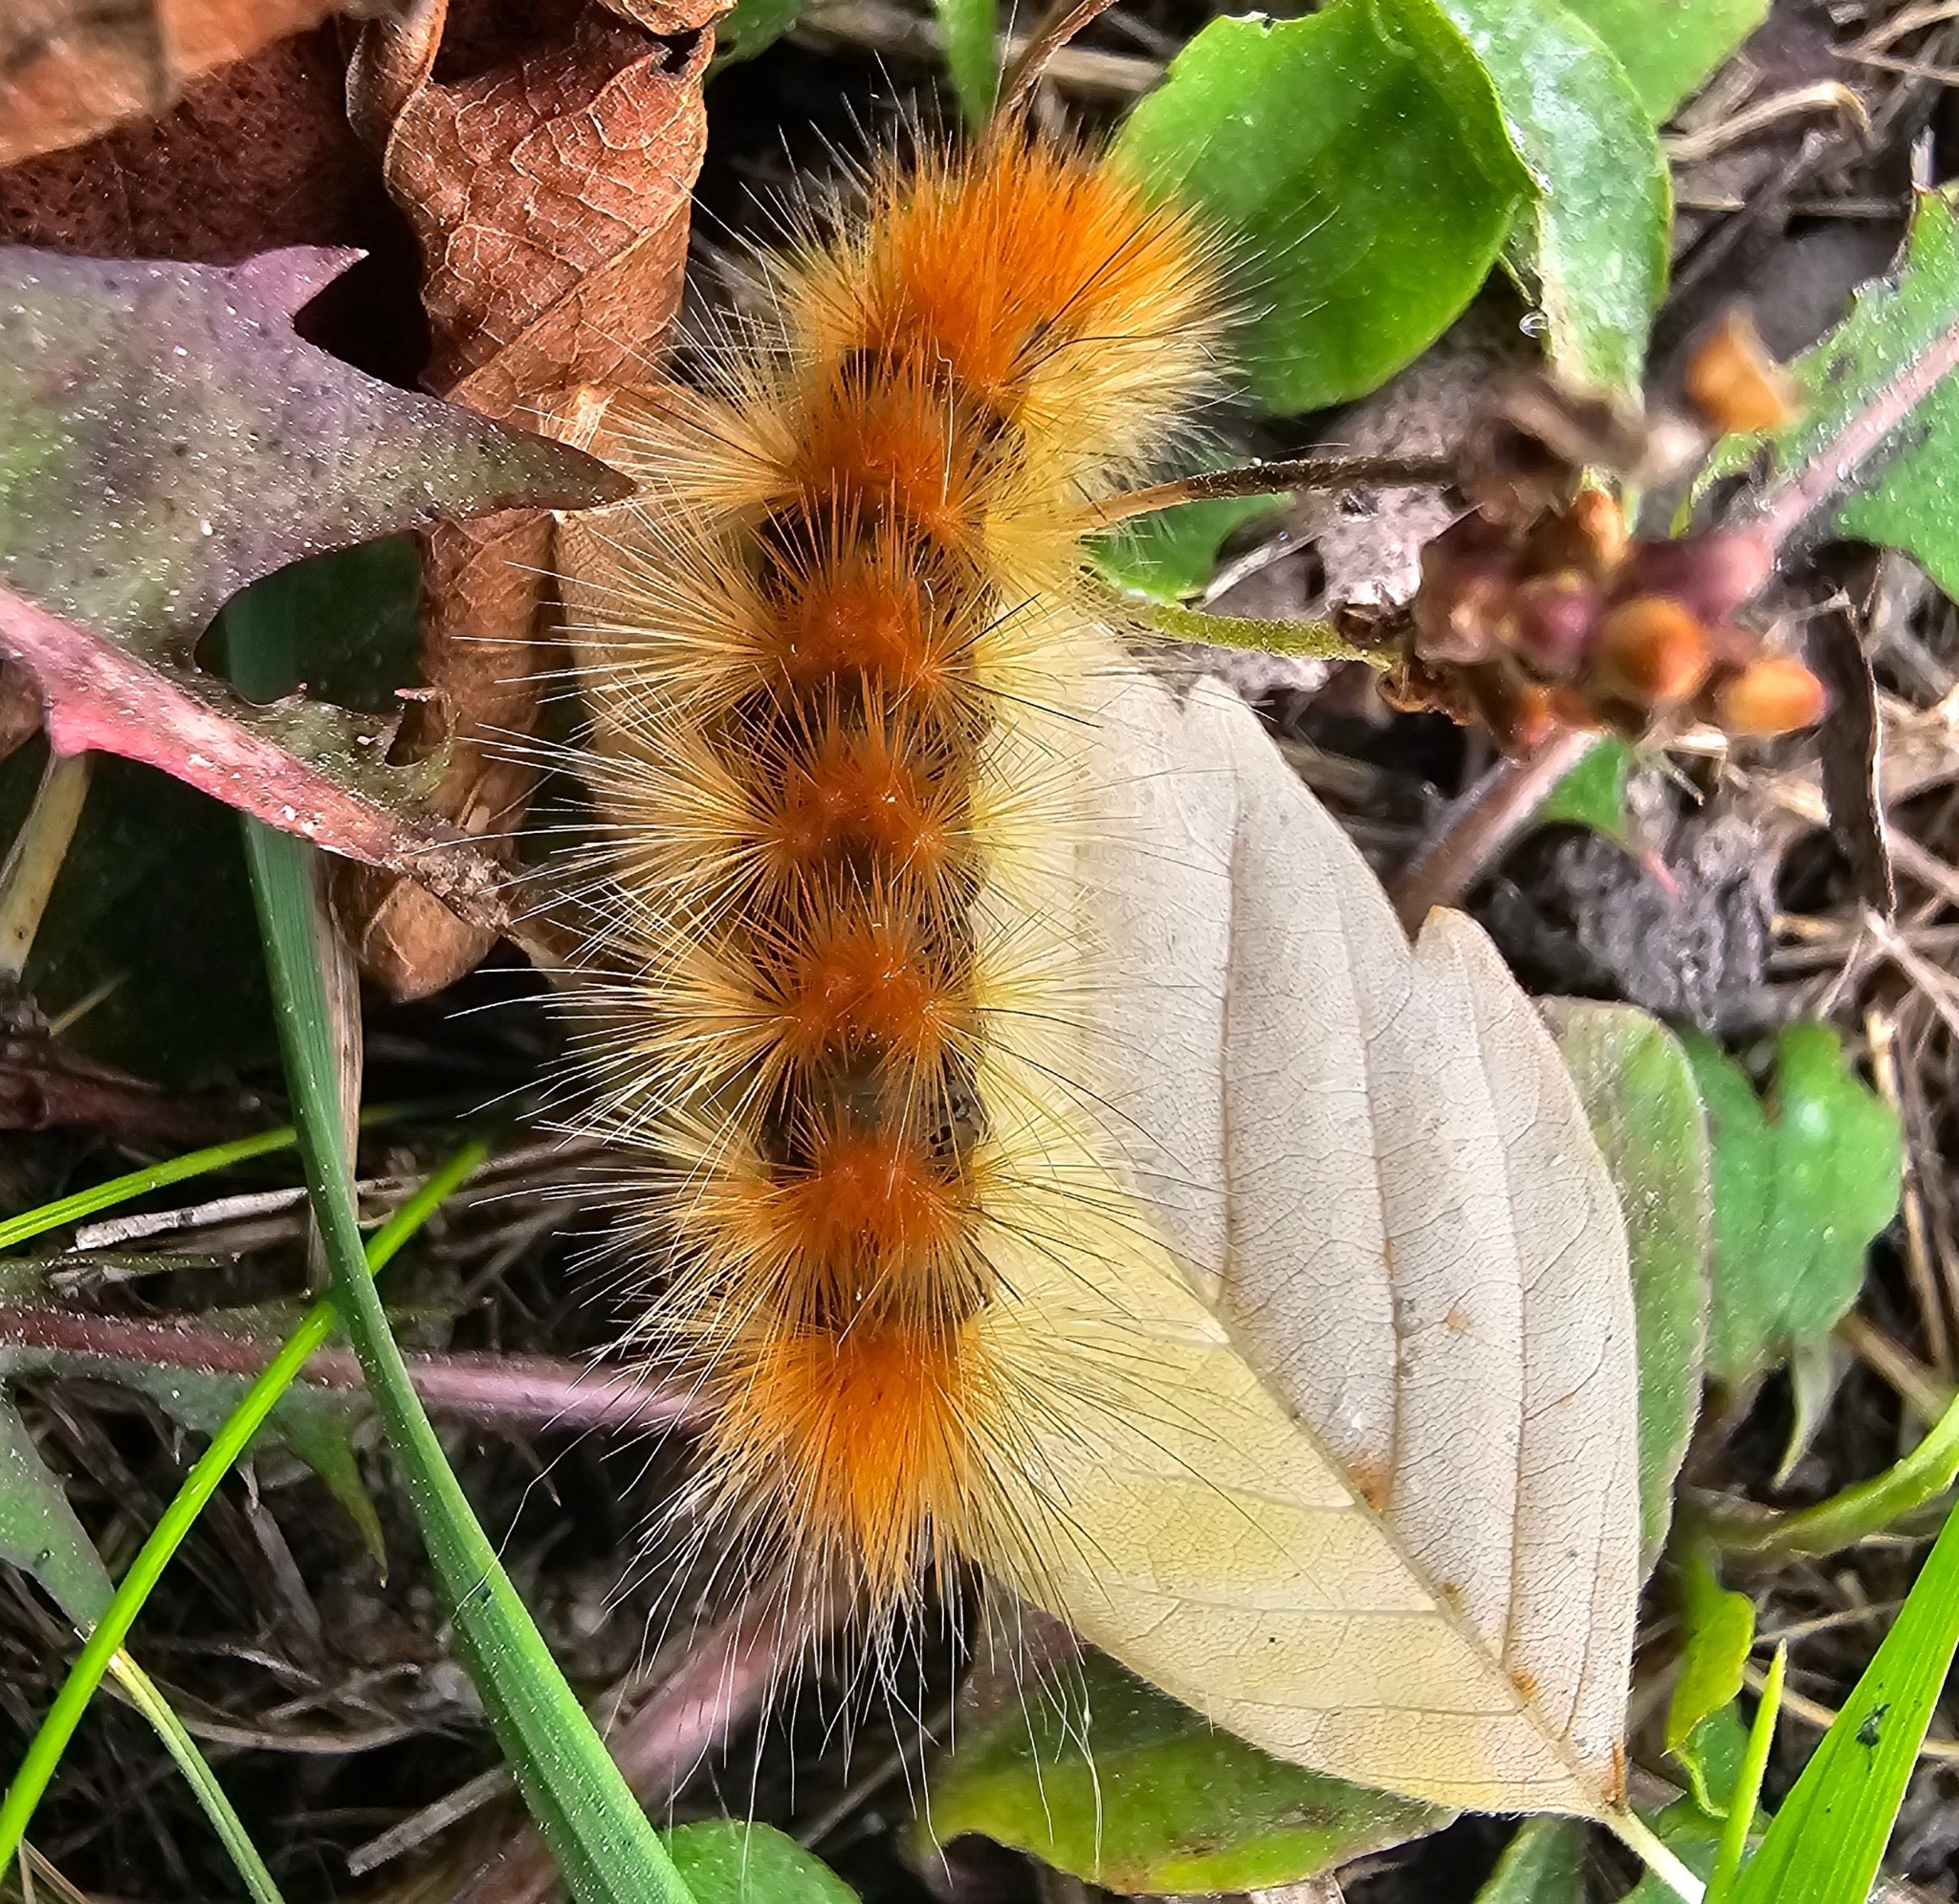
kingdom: Animalia
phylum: Arthropoda
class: Insecta
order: Lepidoptera
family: Erebidae
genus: Spilosoma
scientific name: Spilosoma virginica
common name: Virginia tiger moth
